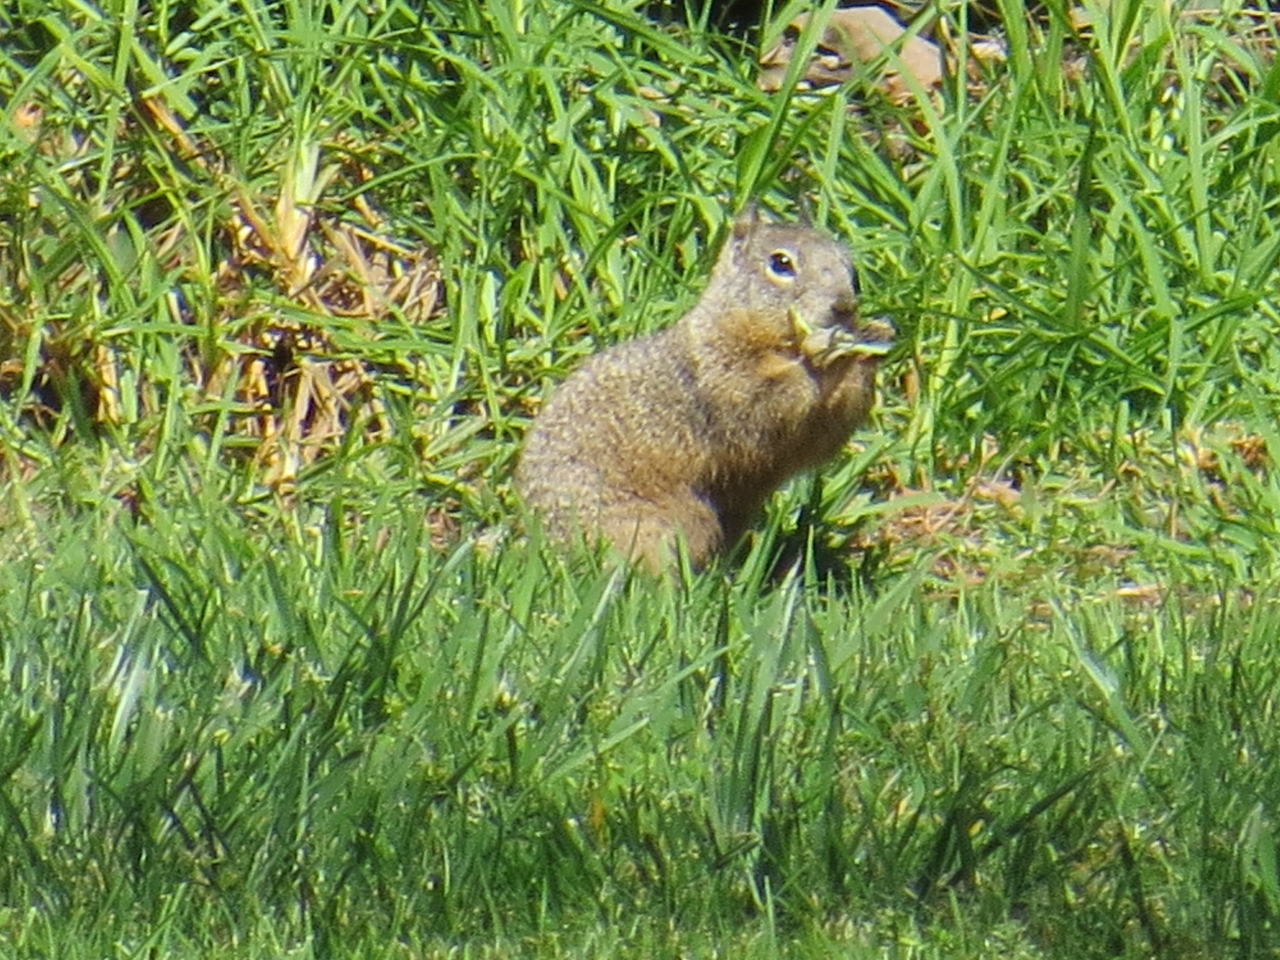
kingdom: Animalia
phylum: Chordata
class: Mammalia
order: Rodentia
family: Sciuridae
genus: Otospermophilus
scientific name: Otospermophilus beecheyi
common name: California ground squirrel
